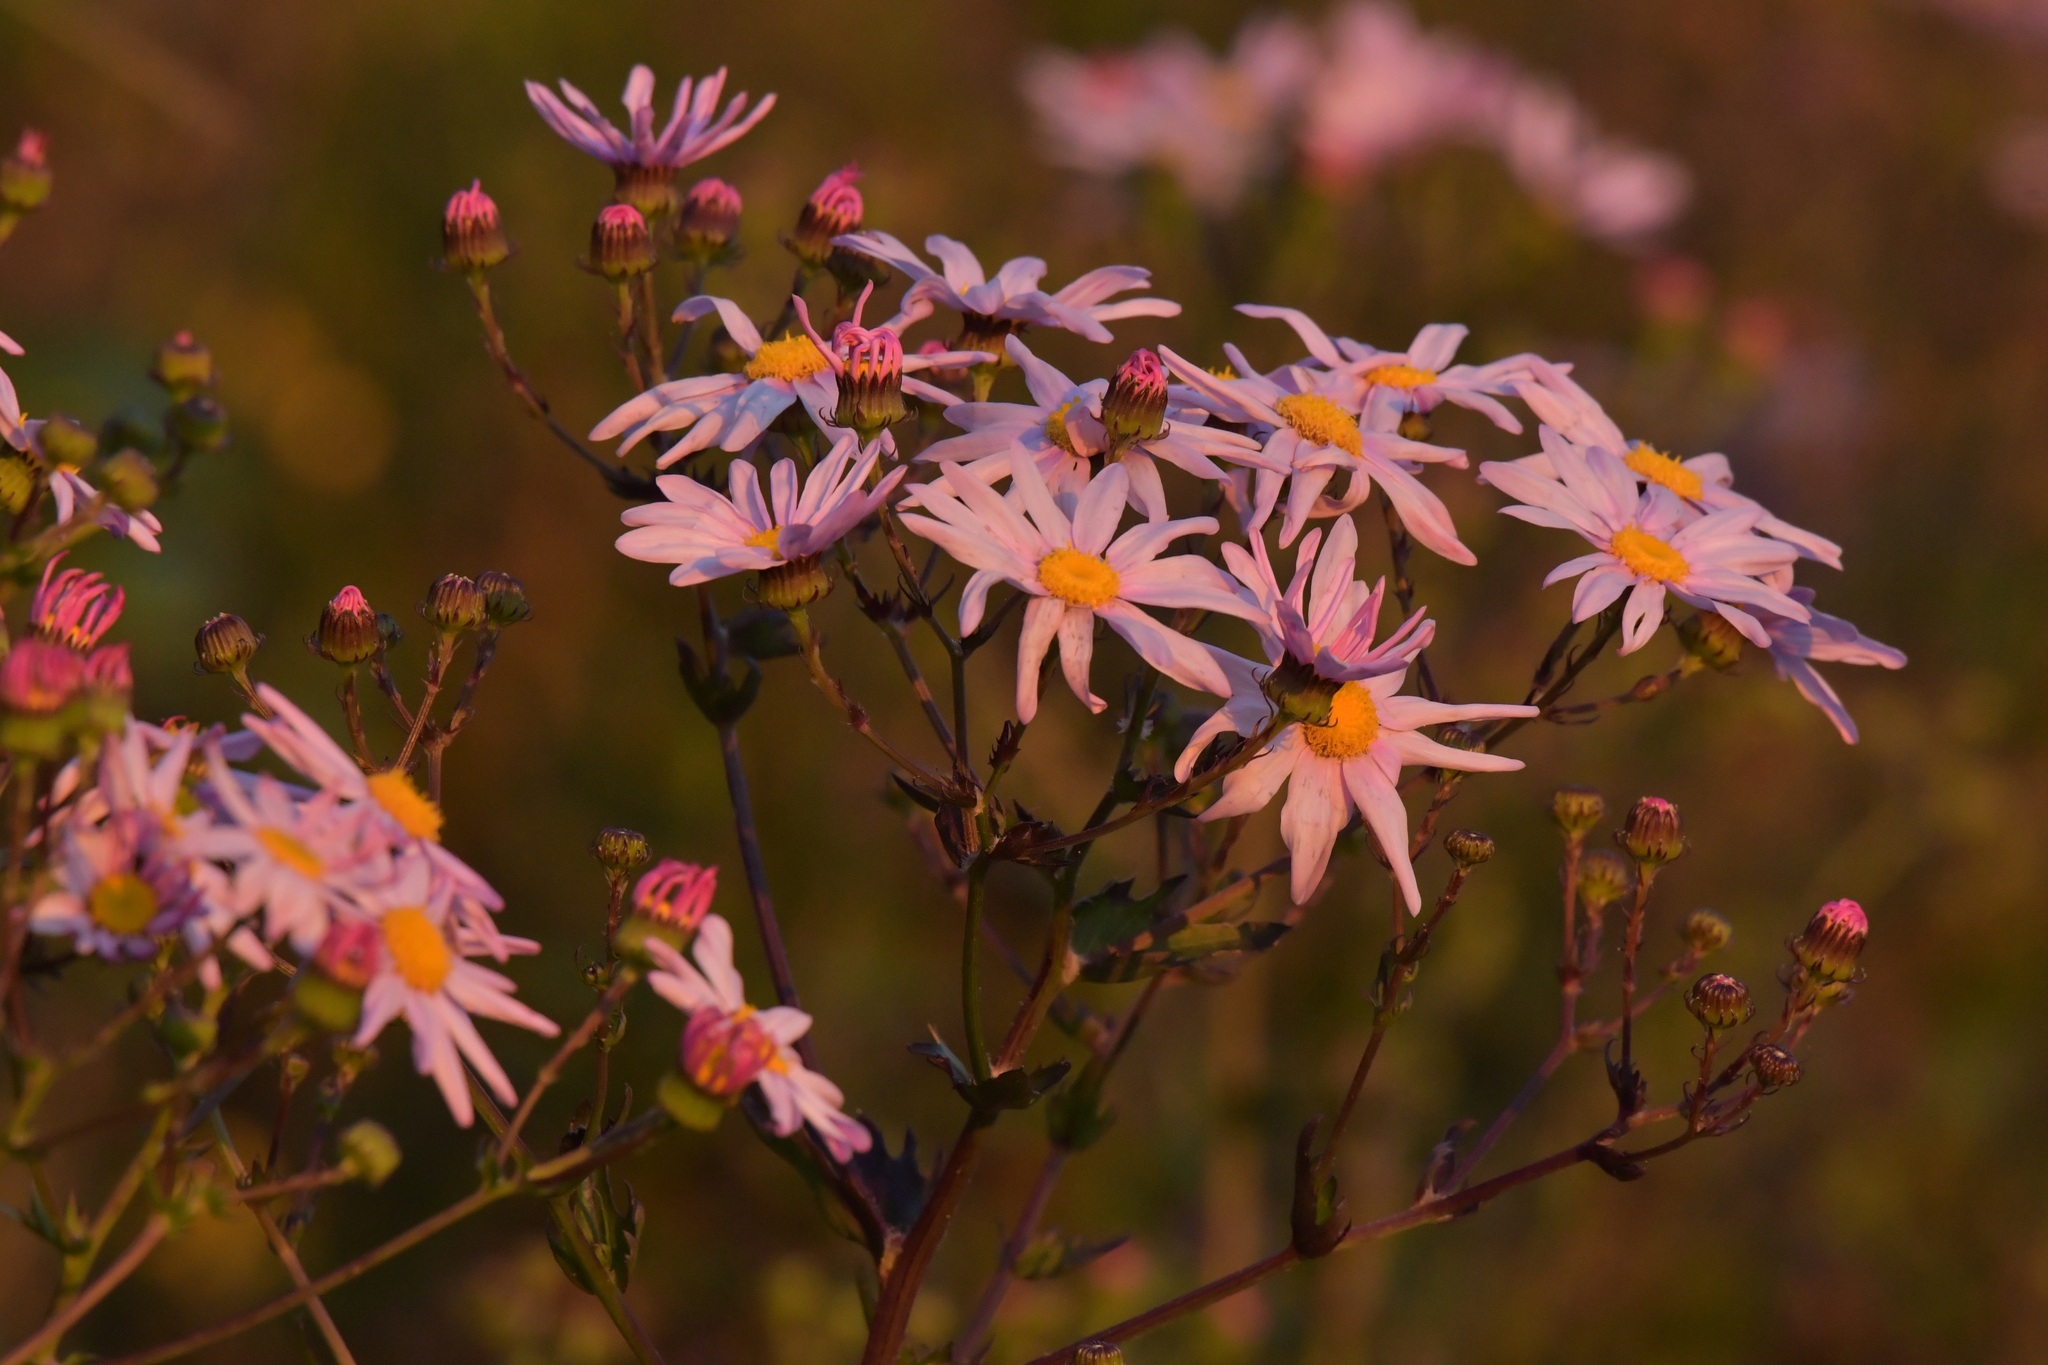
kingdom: Plantae
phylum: Tracheophyta
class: Magnoliopsida
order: Asterales
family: Asteraceae
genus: Senecio
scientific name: Senecio glastifolius
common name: Woad-leaved ragwort
